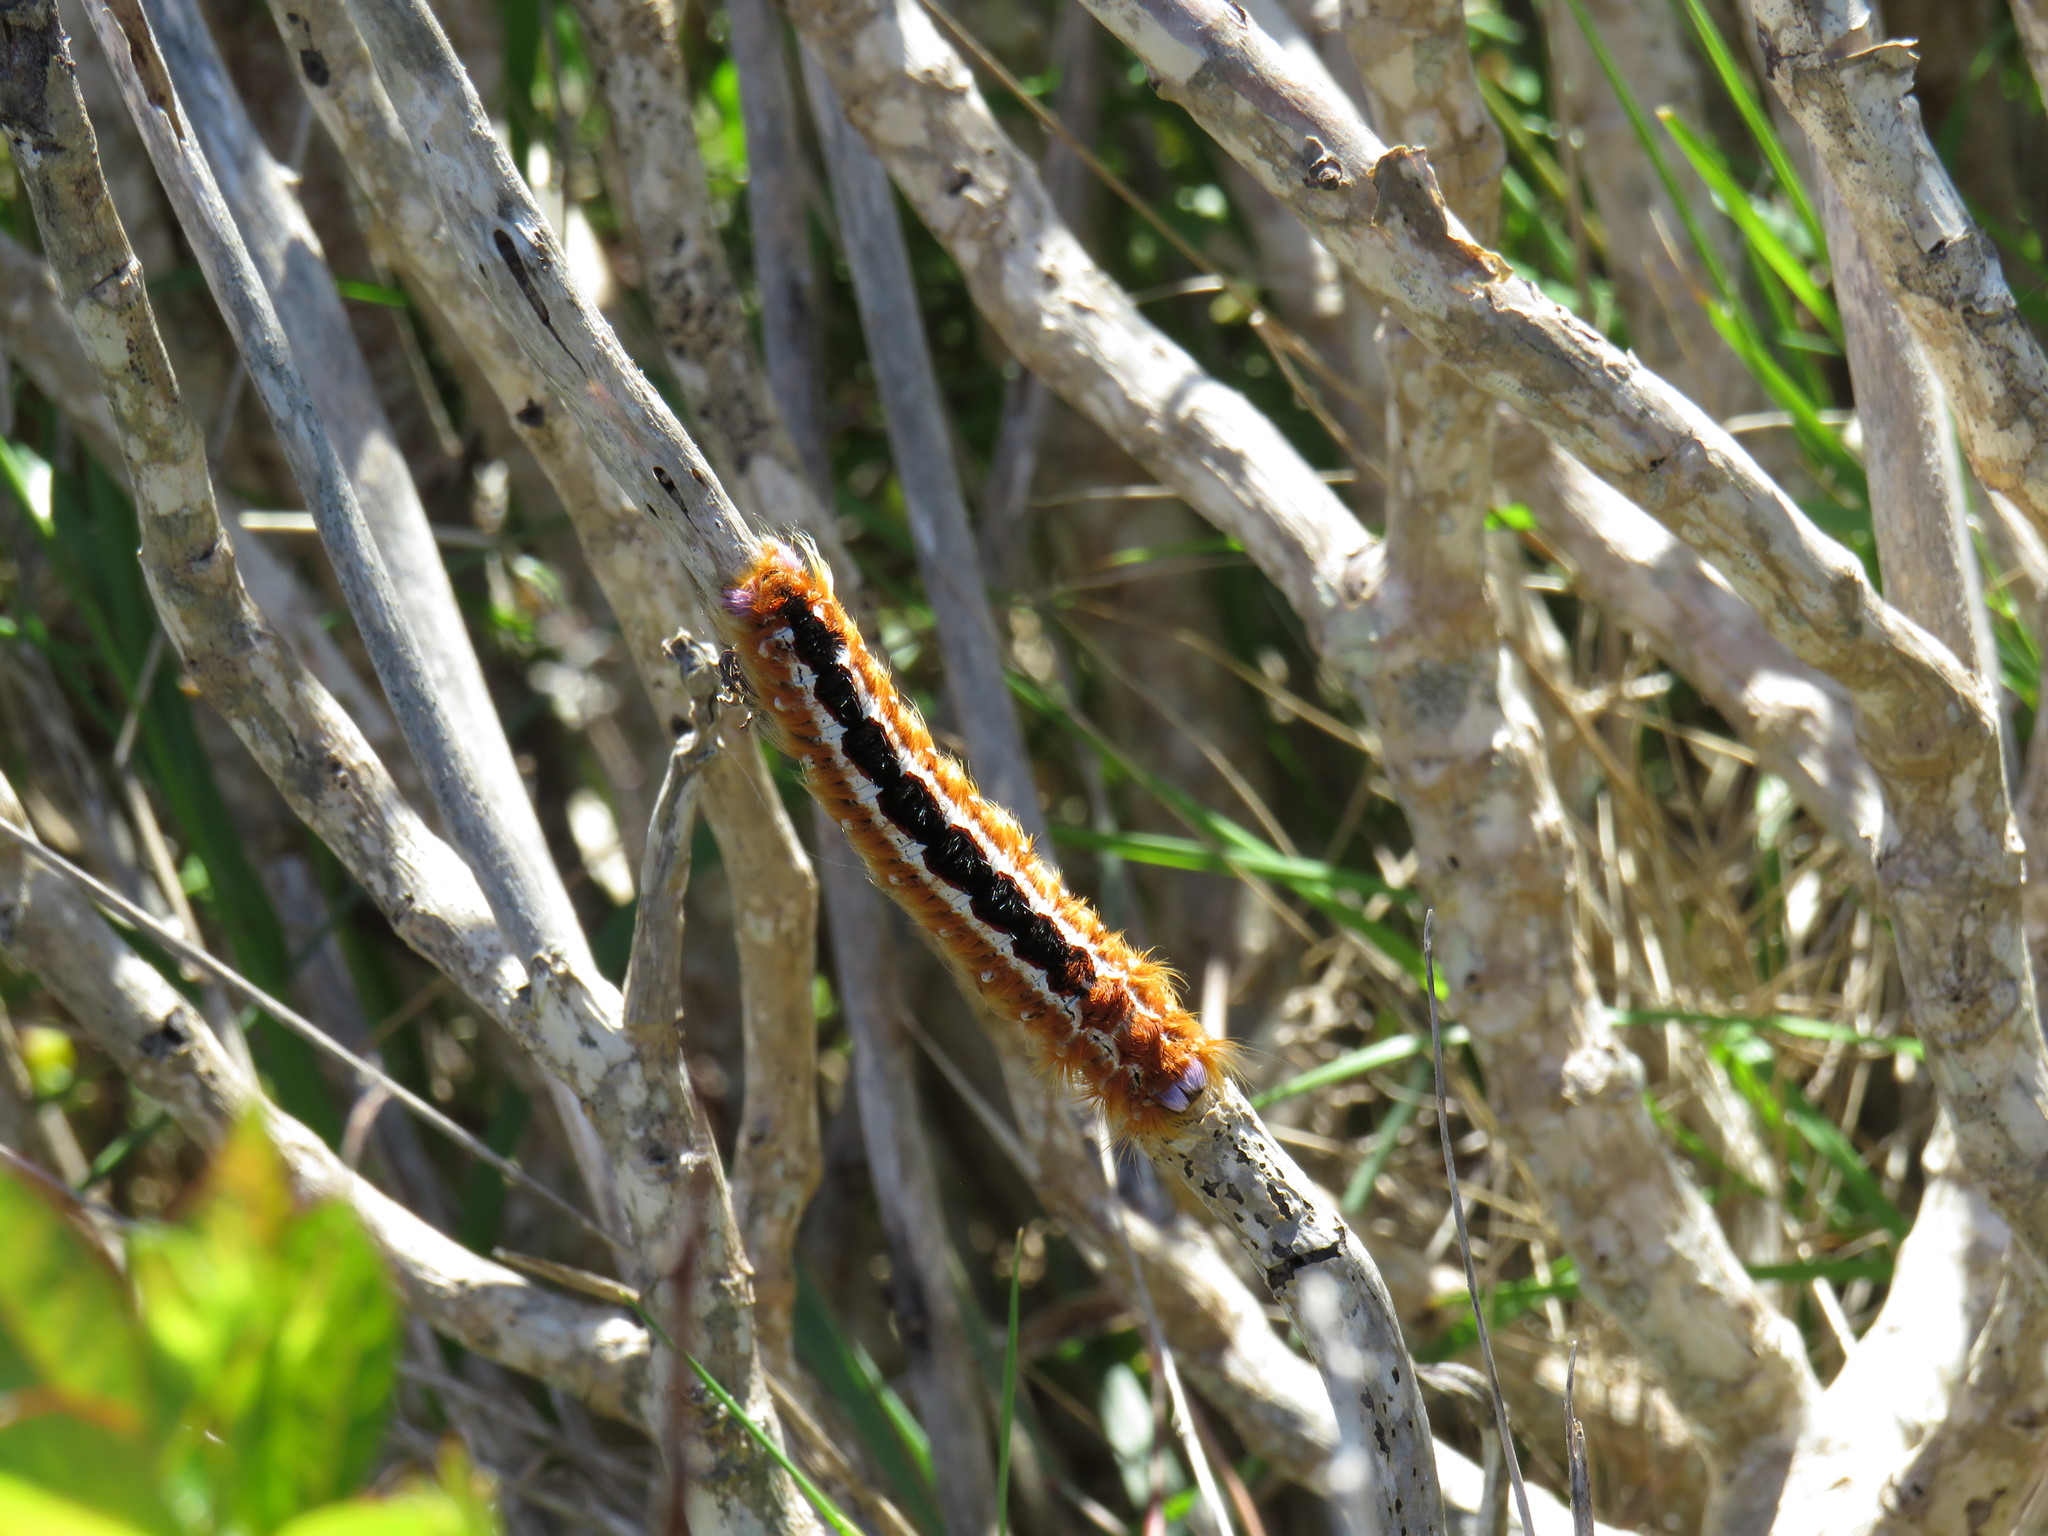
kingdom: Animalia
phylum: Arthropoda
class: Insecta
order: Lepidoptera
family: Lasiocampidae
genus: Eutricha
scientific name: Eutricha capensis
